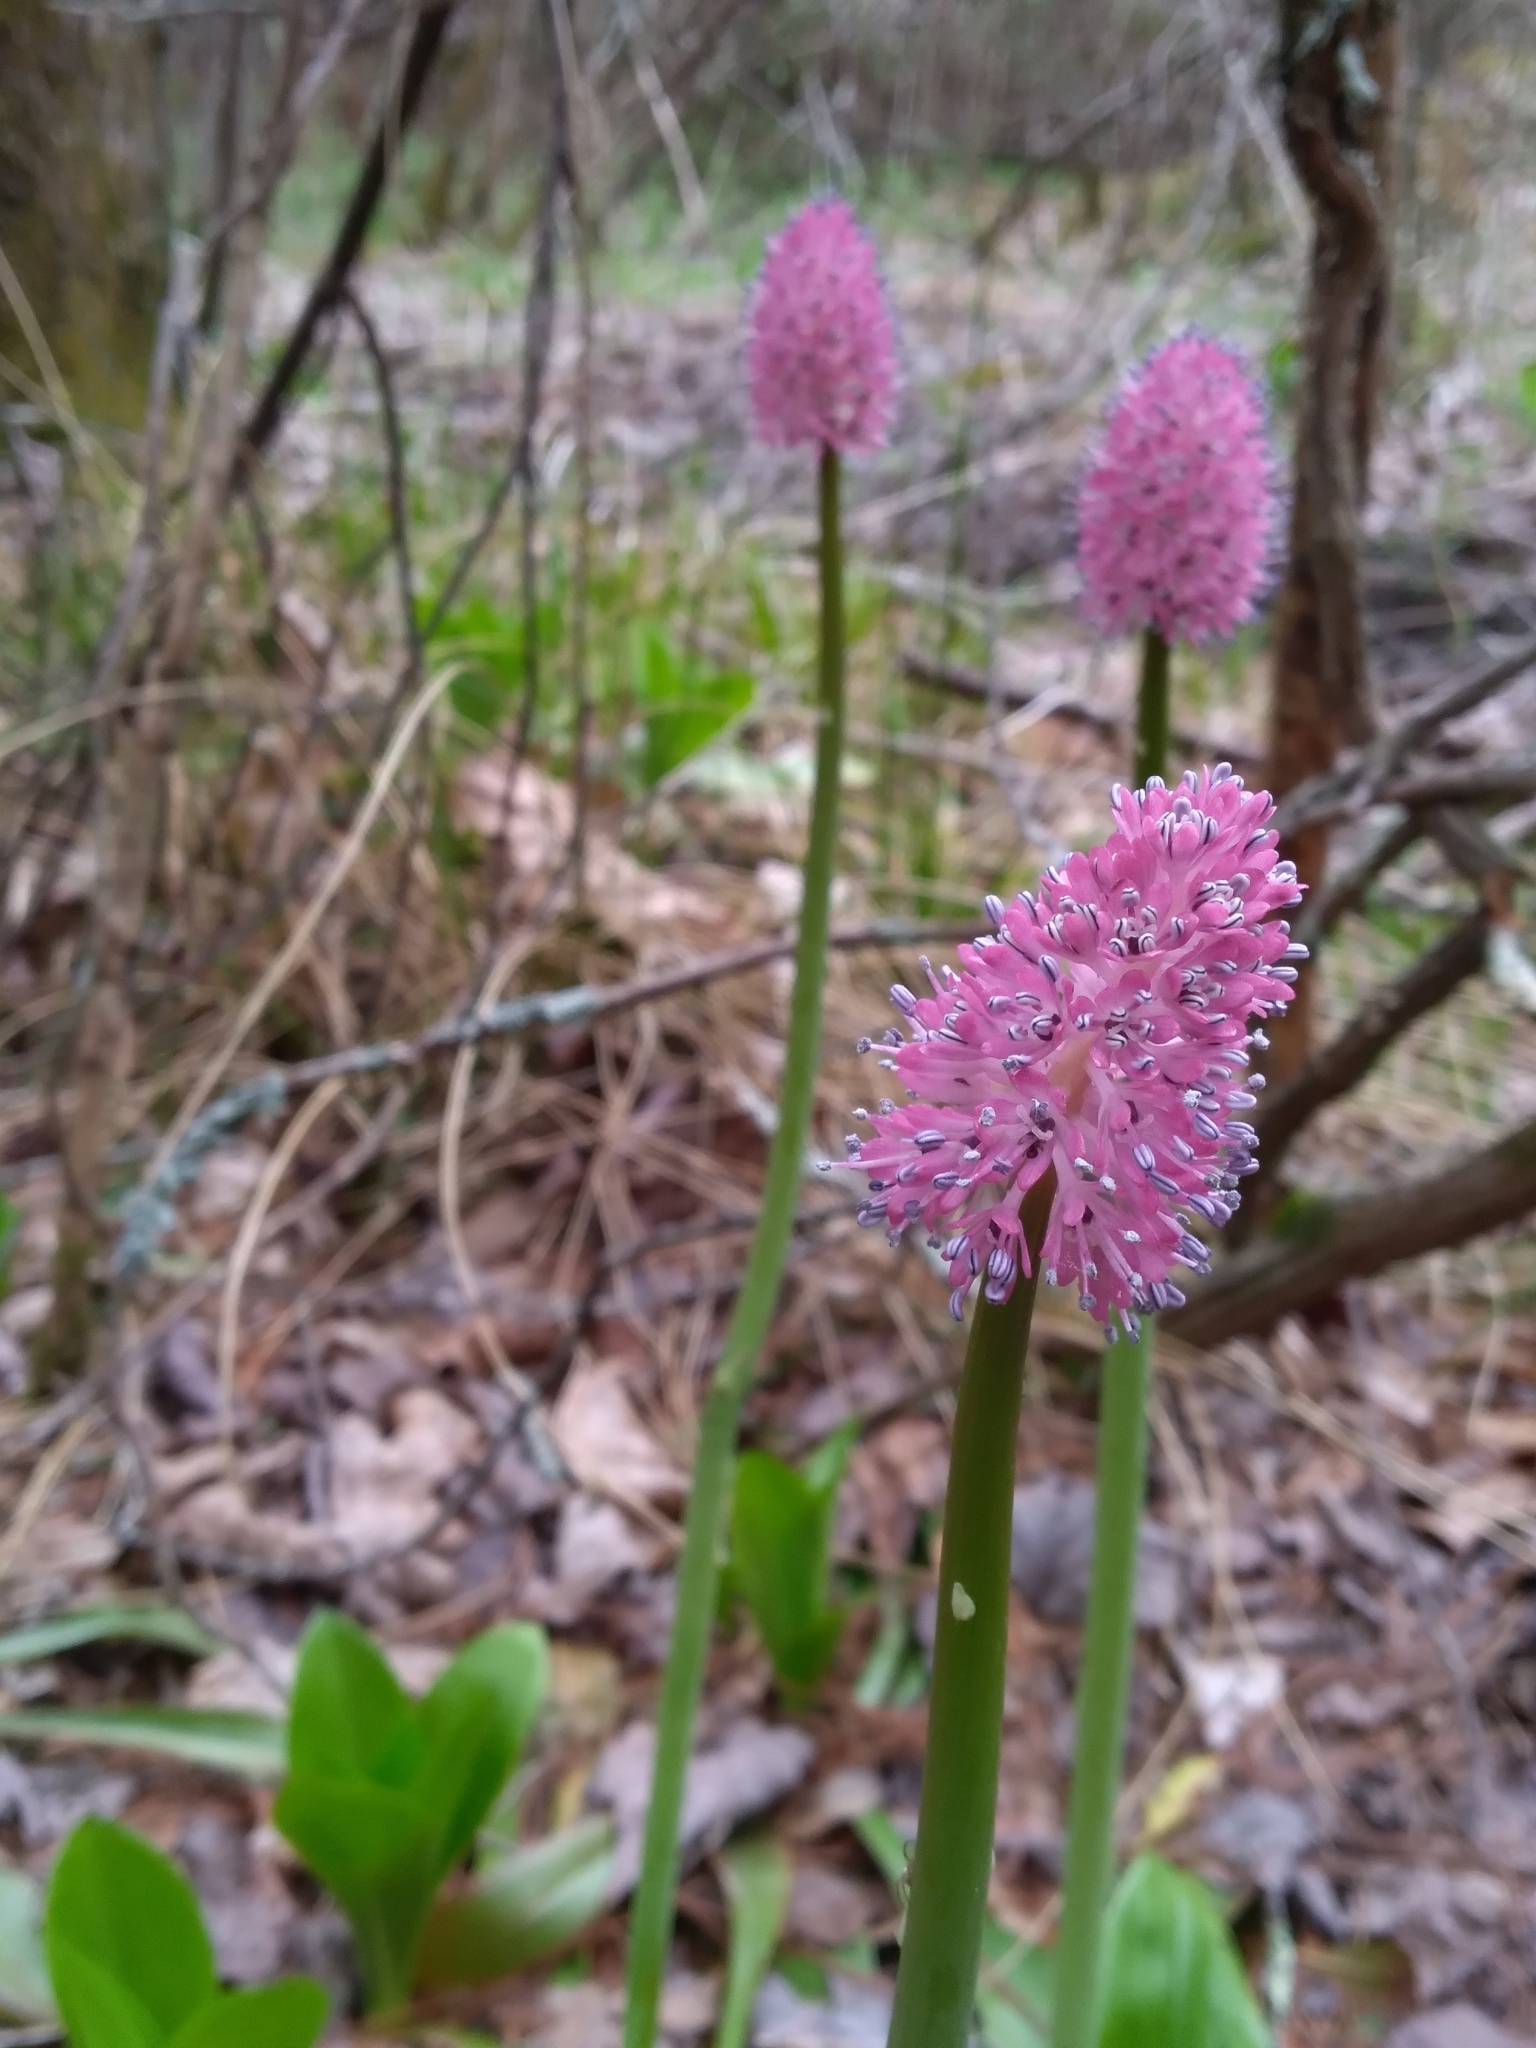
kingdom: Plantae
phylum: Tracheophyta
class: Liliopsida
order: Liliales
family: Melanthiaceae
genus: Helonias
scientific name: Helonias bullata
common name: Swamp-pink
